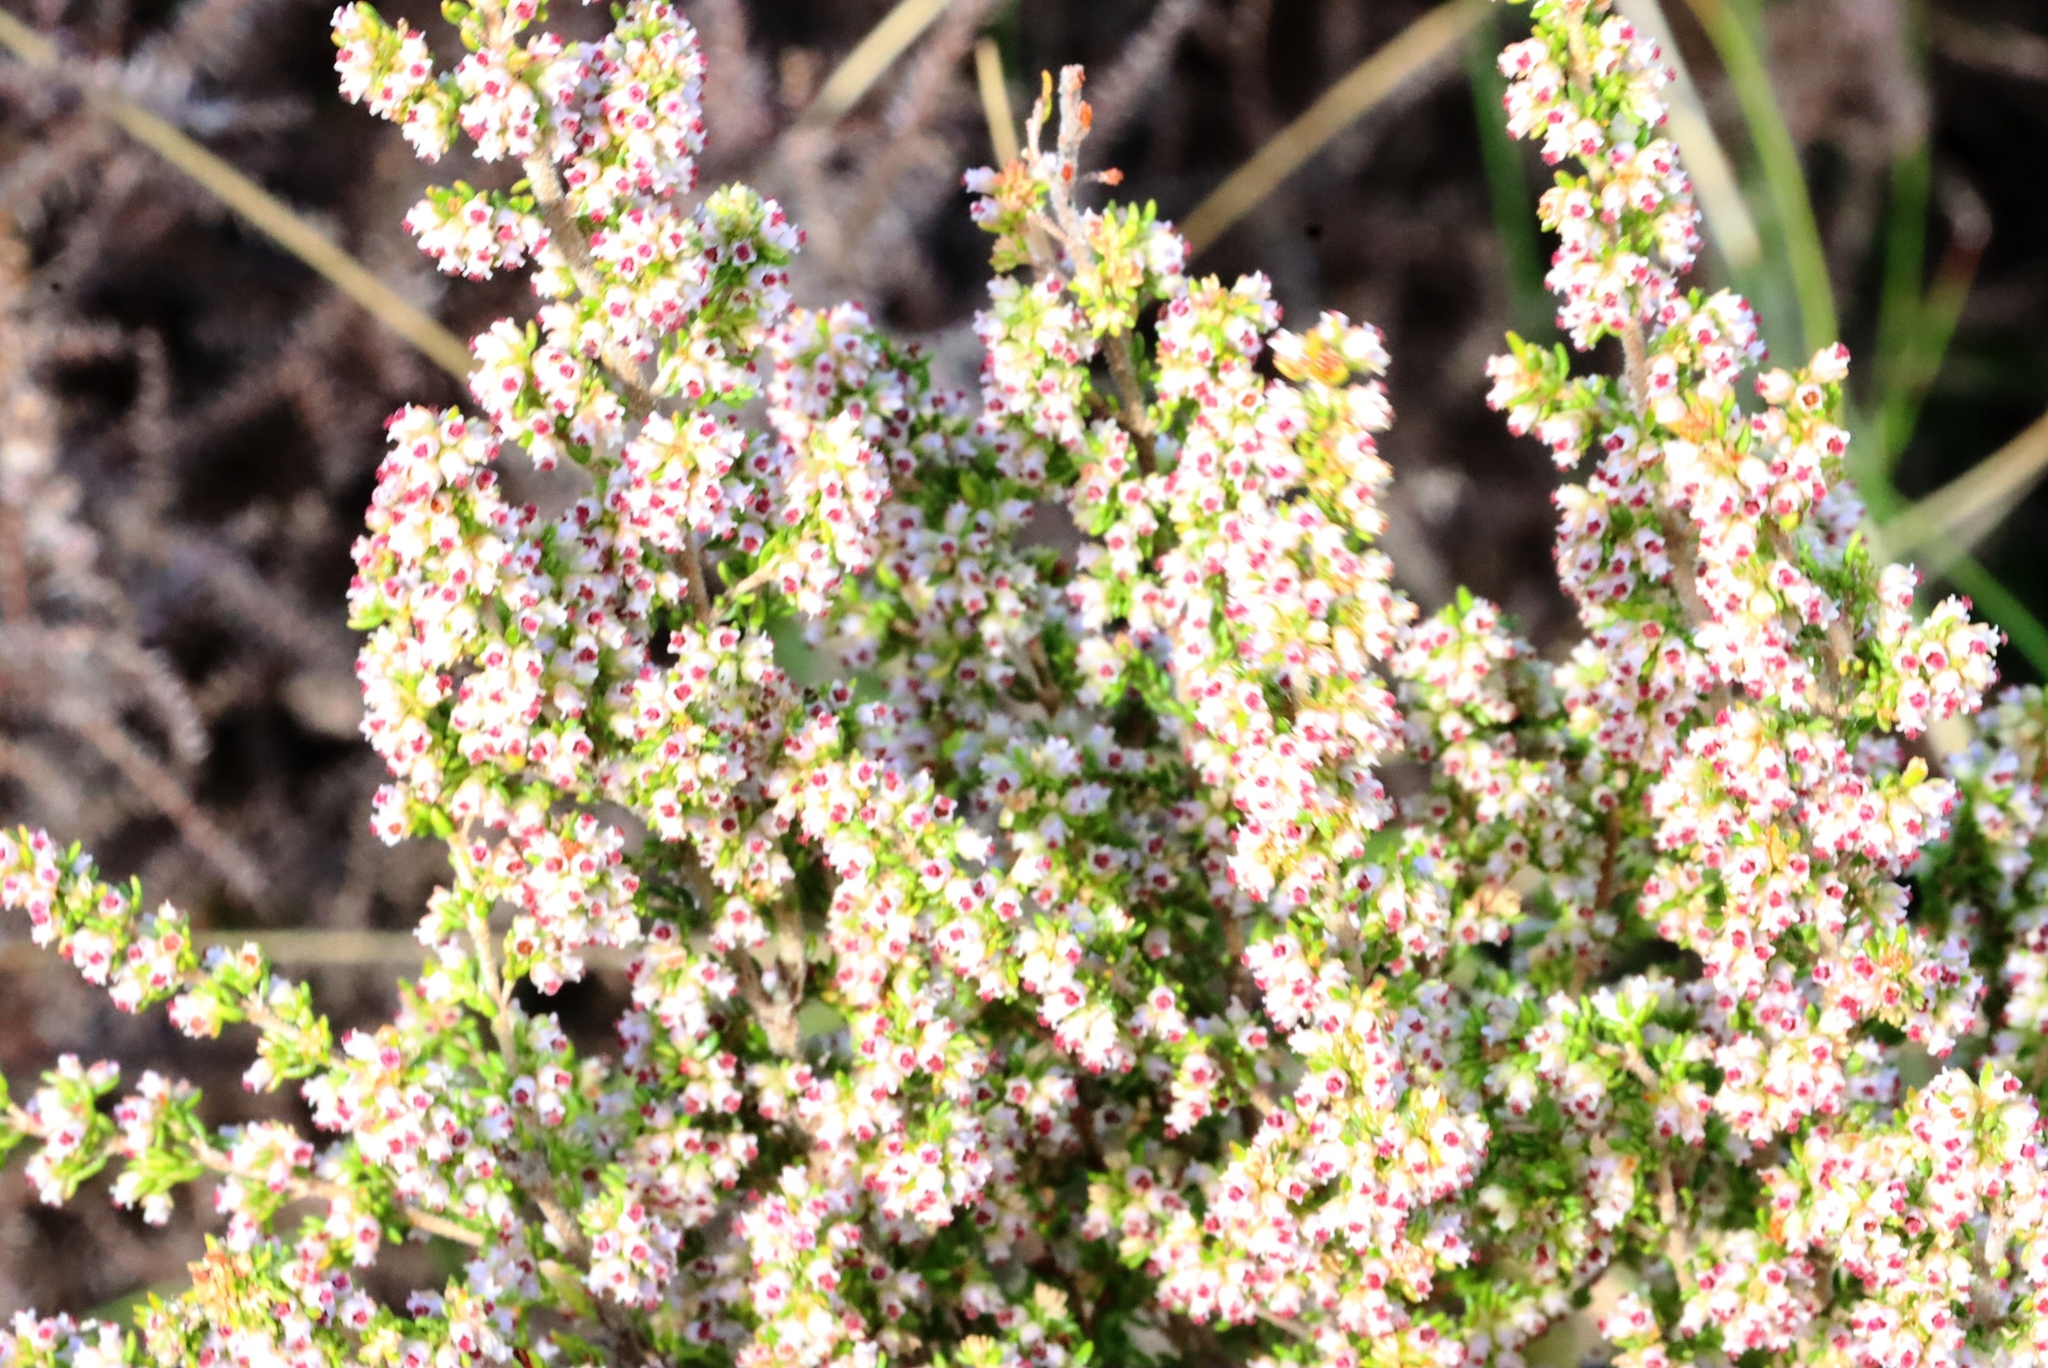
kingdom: Plantae
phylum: Tracheophyta
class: Magnoliopsida
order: Ericales
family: Ericaceae
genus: Erica
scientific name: Erica hispidula
